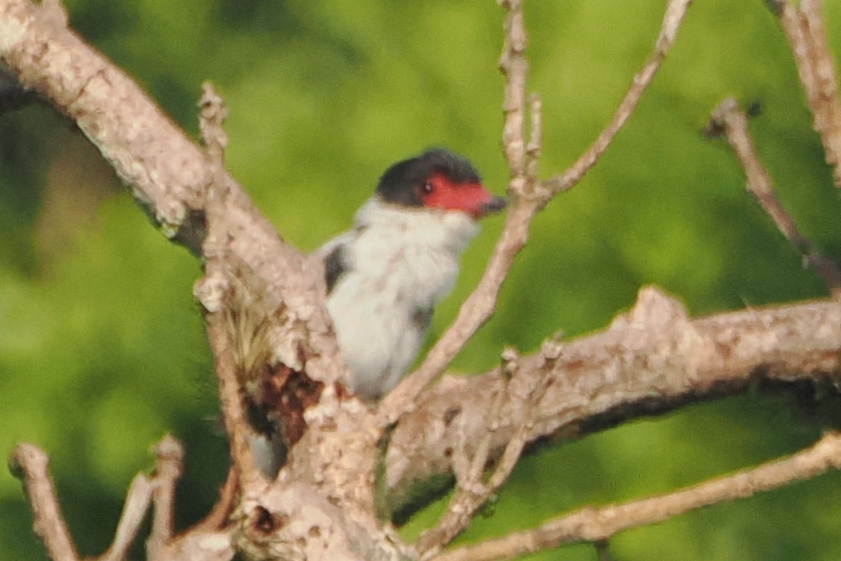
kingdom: Animalia
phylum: Chordata
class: Aves
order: Passeriformes
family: Cotingidae
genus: Tityra
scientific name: Tityra cayana
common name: Black-tailed tityra
